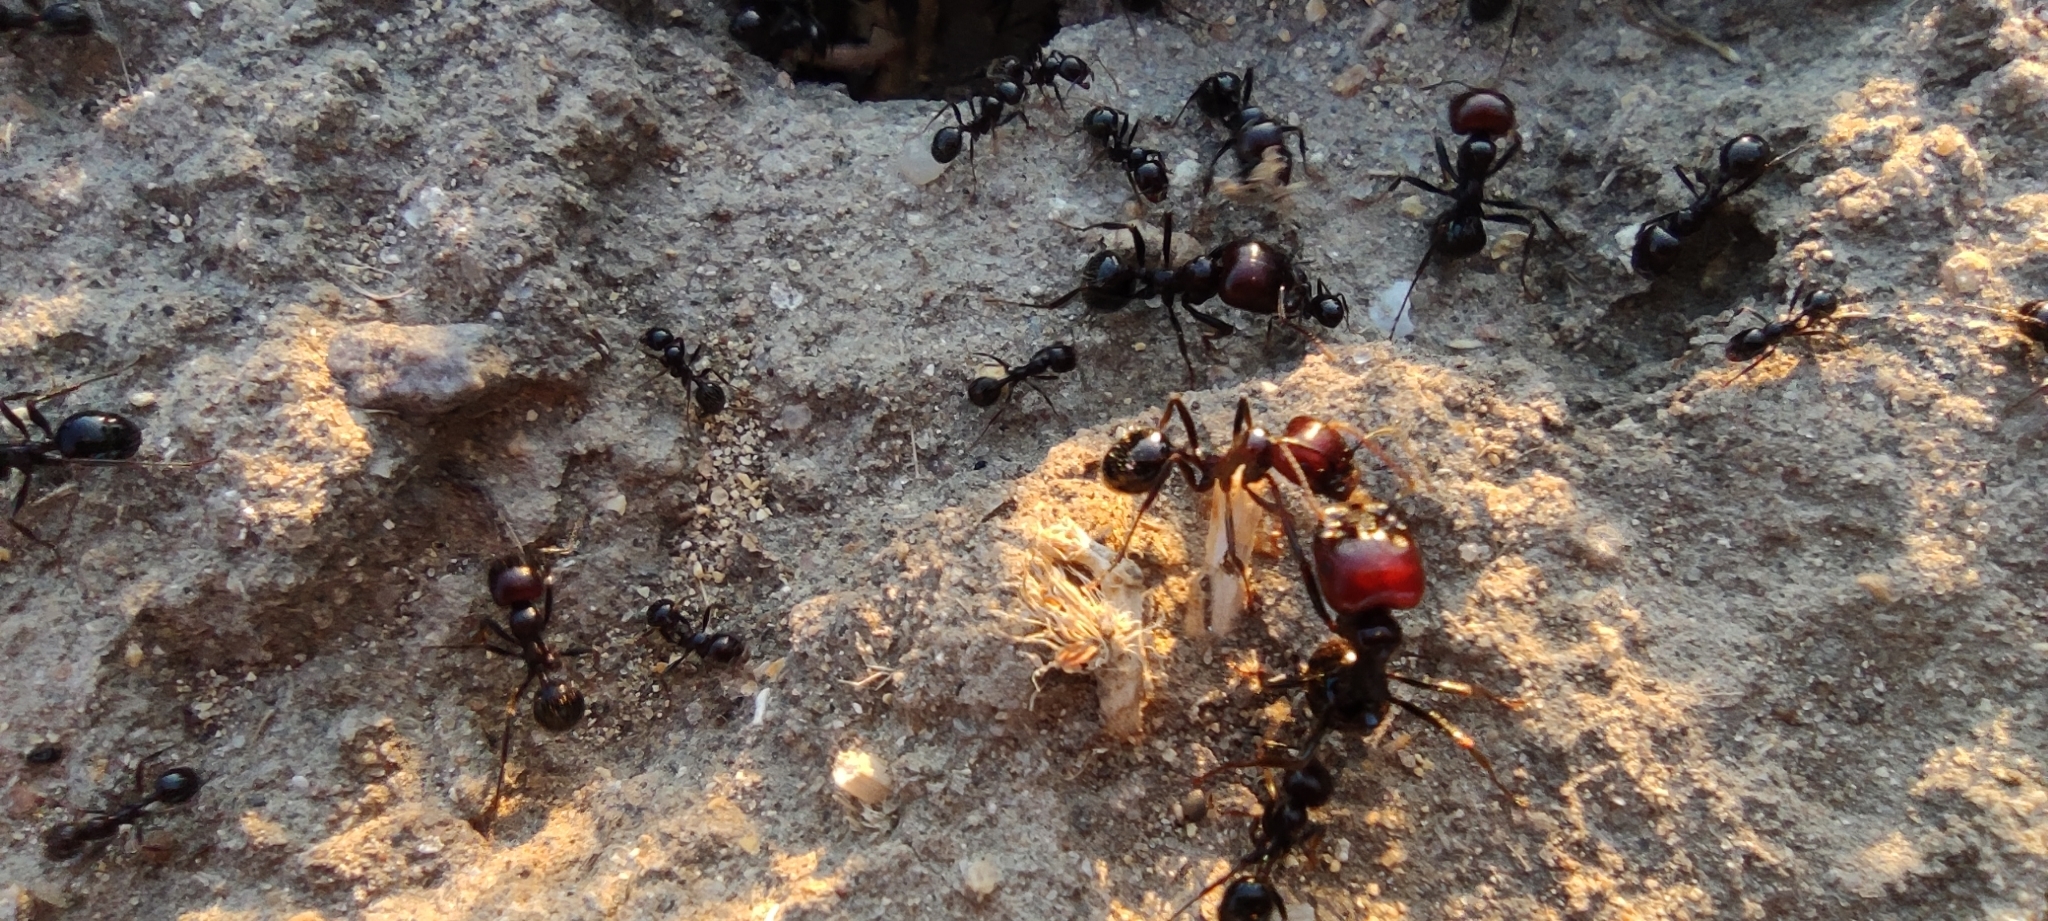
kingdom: Animalia
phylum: Arthropoda
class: Insecta
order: Hymenoptera
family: Formicidae
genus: Messor
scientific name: Messor barbarus
